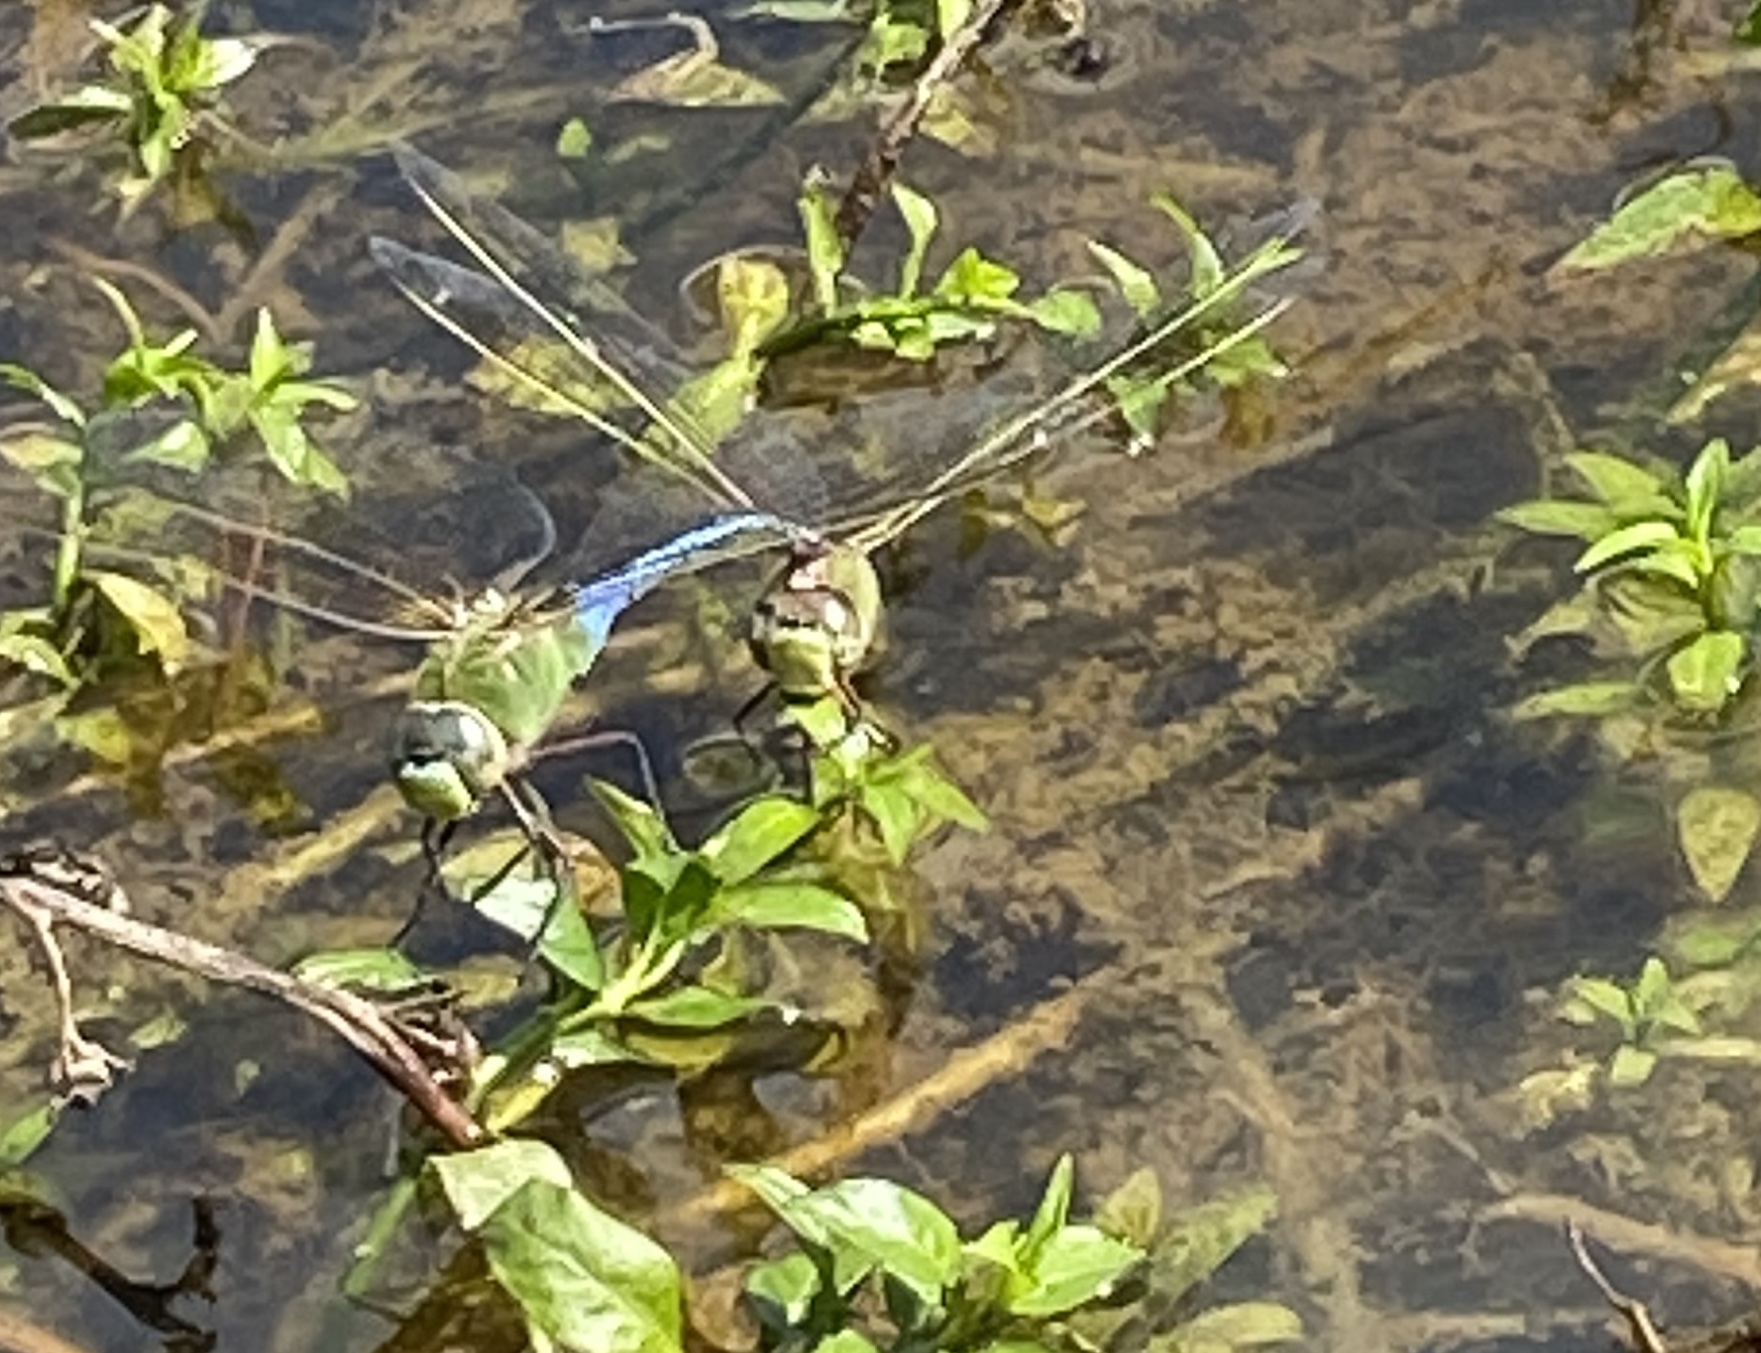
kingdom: Animalia
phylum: Arthropoda
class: Insecta
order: Odonata
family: Aeshnidae
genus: Anax
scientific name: Anax junius
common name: Common green darner
